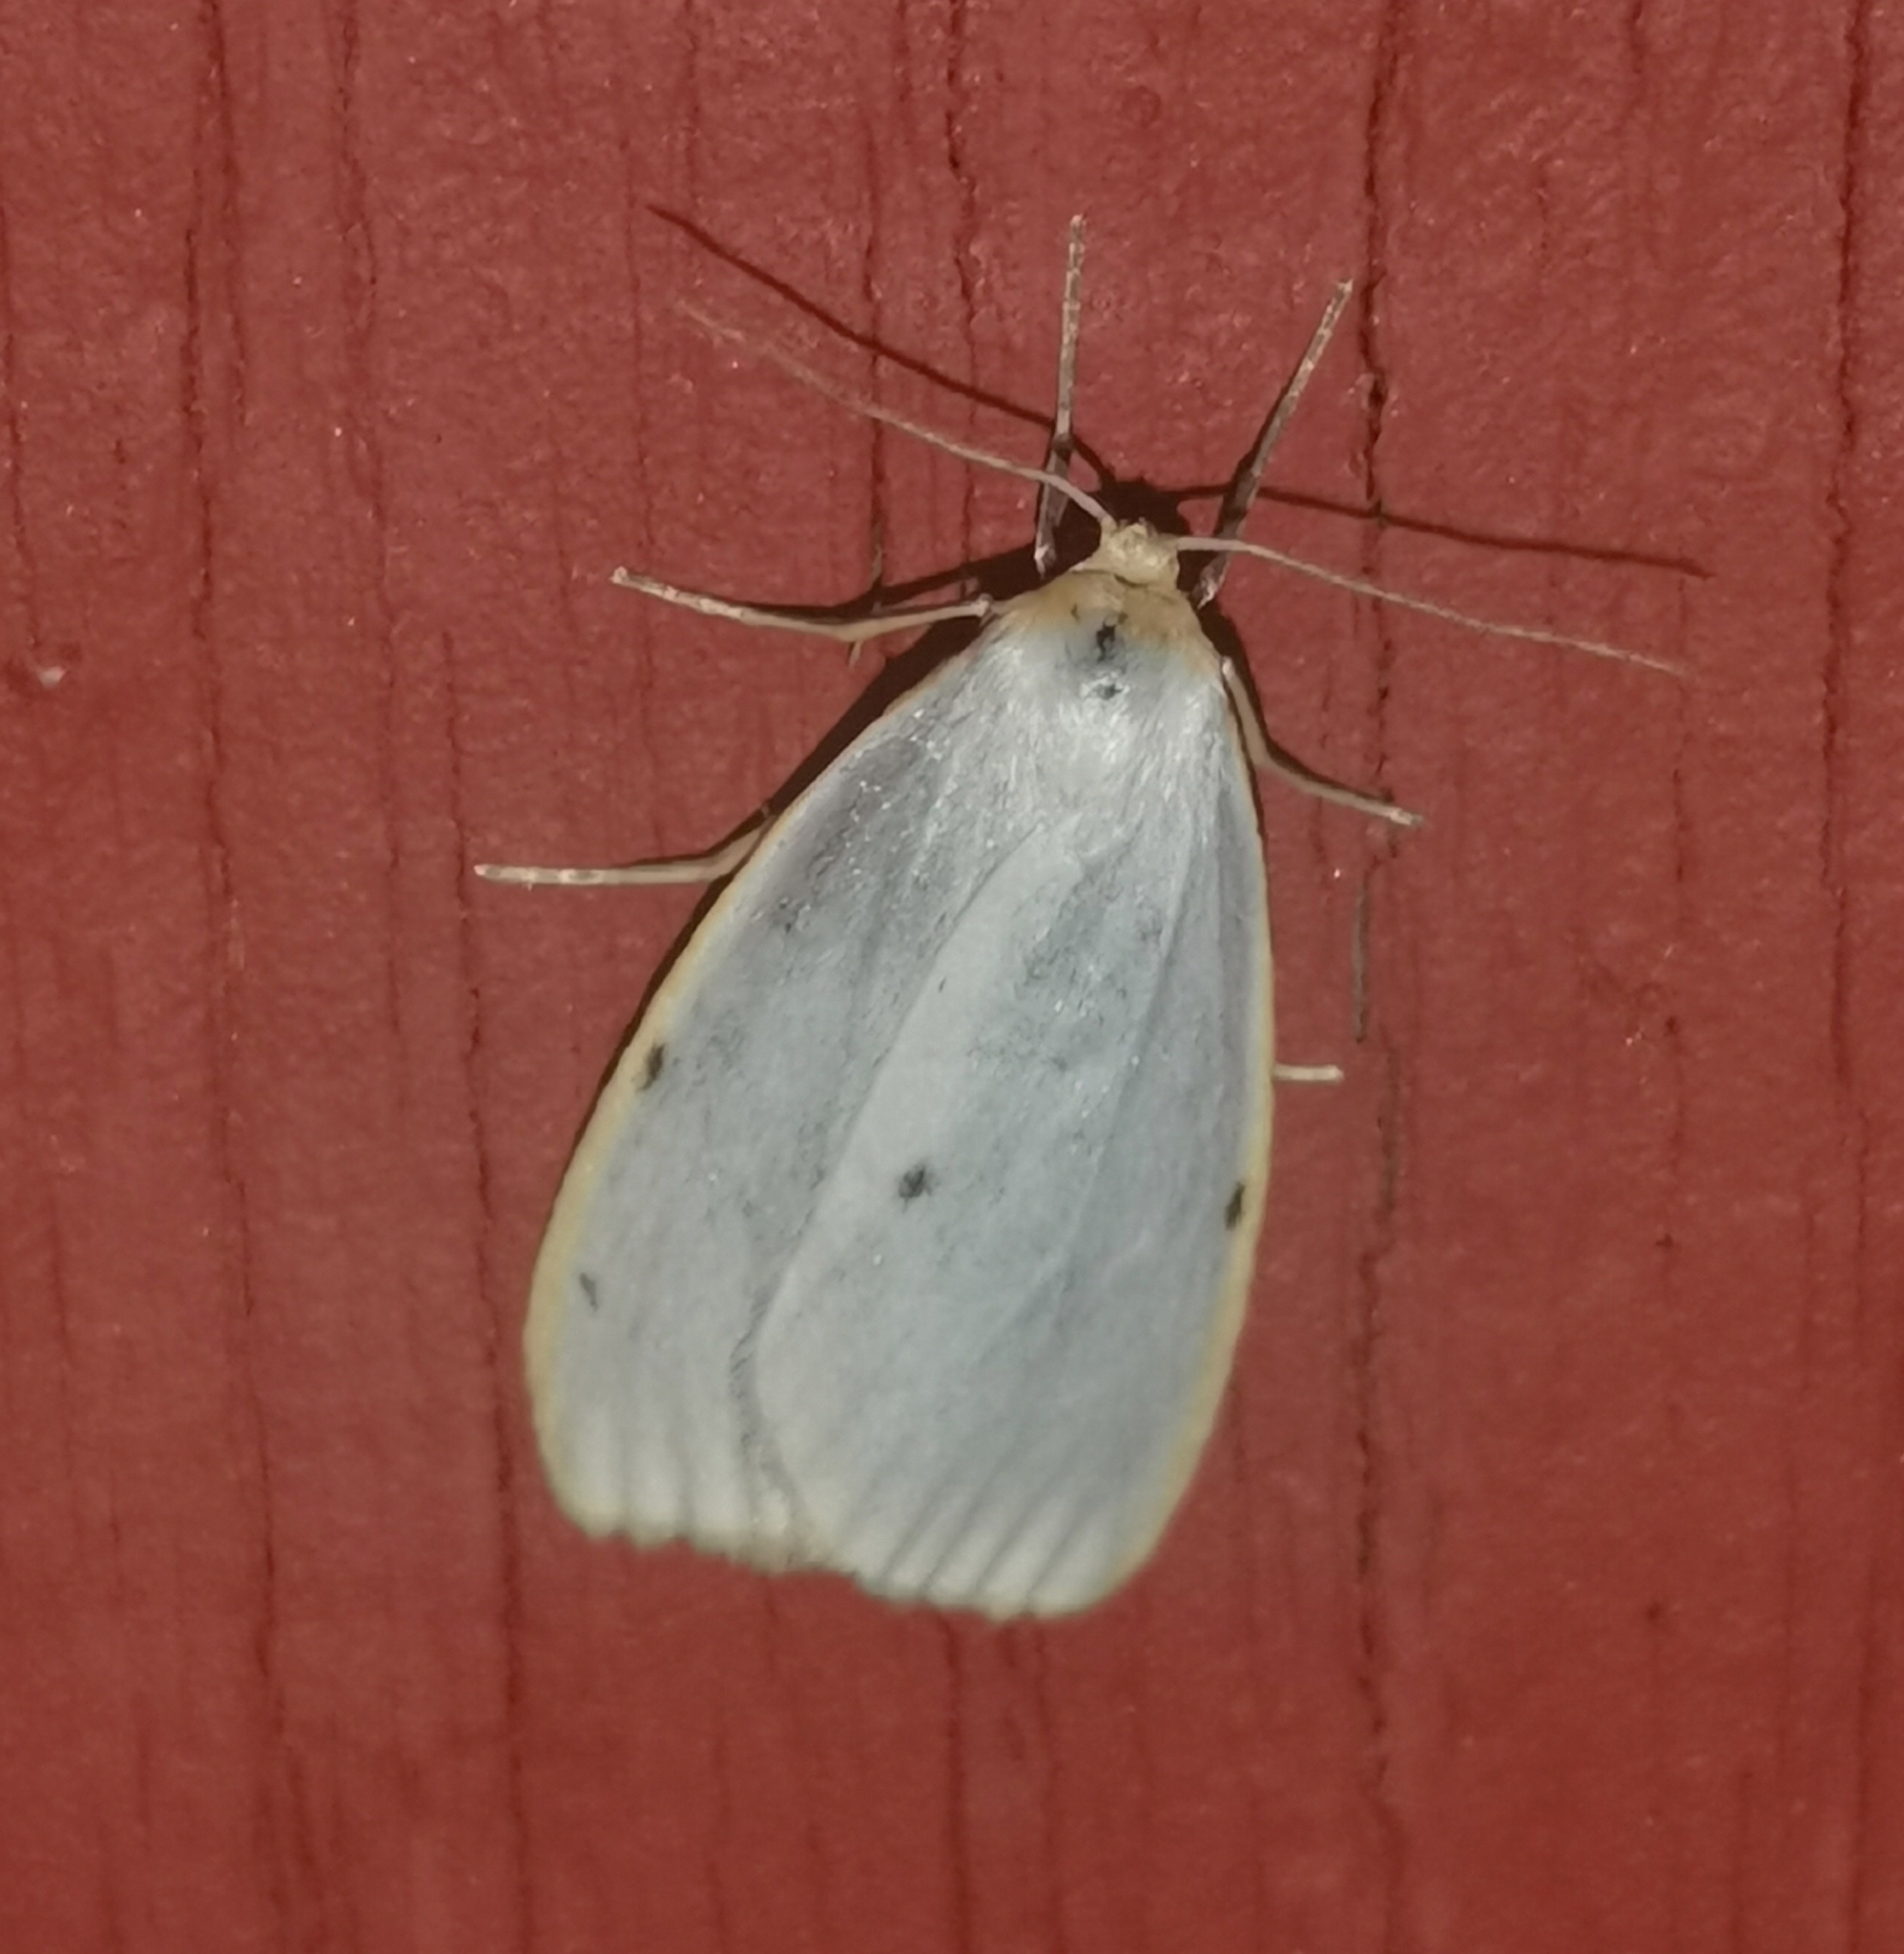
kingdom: Animalia
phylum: Arthropoda
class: Insecta
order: Lepidoptera
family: Erebidae
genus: Cybosia
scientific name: Cybosia mesomella
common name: Four-dotted footman
